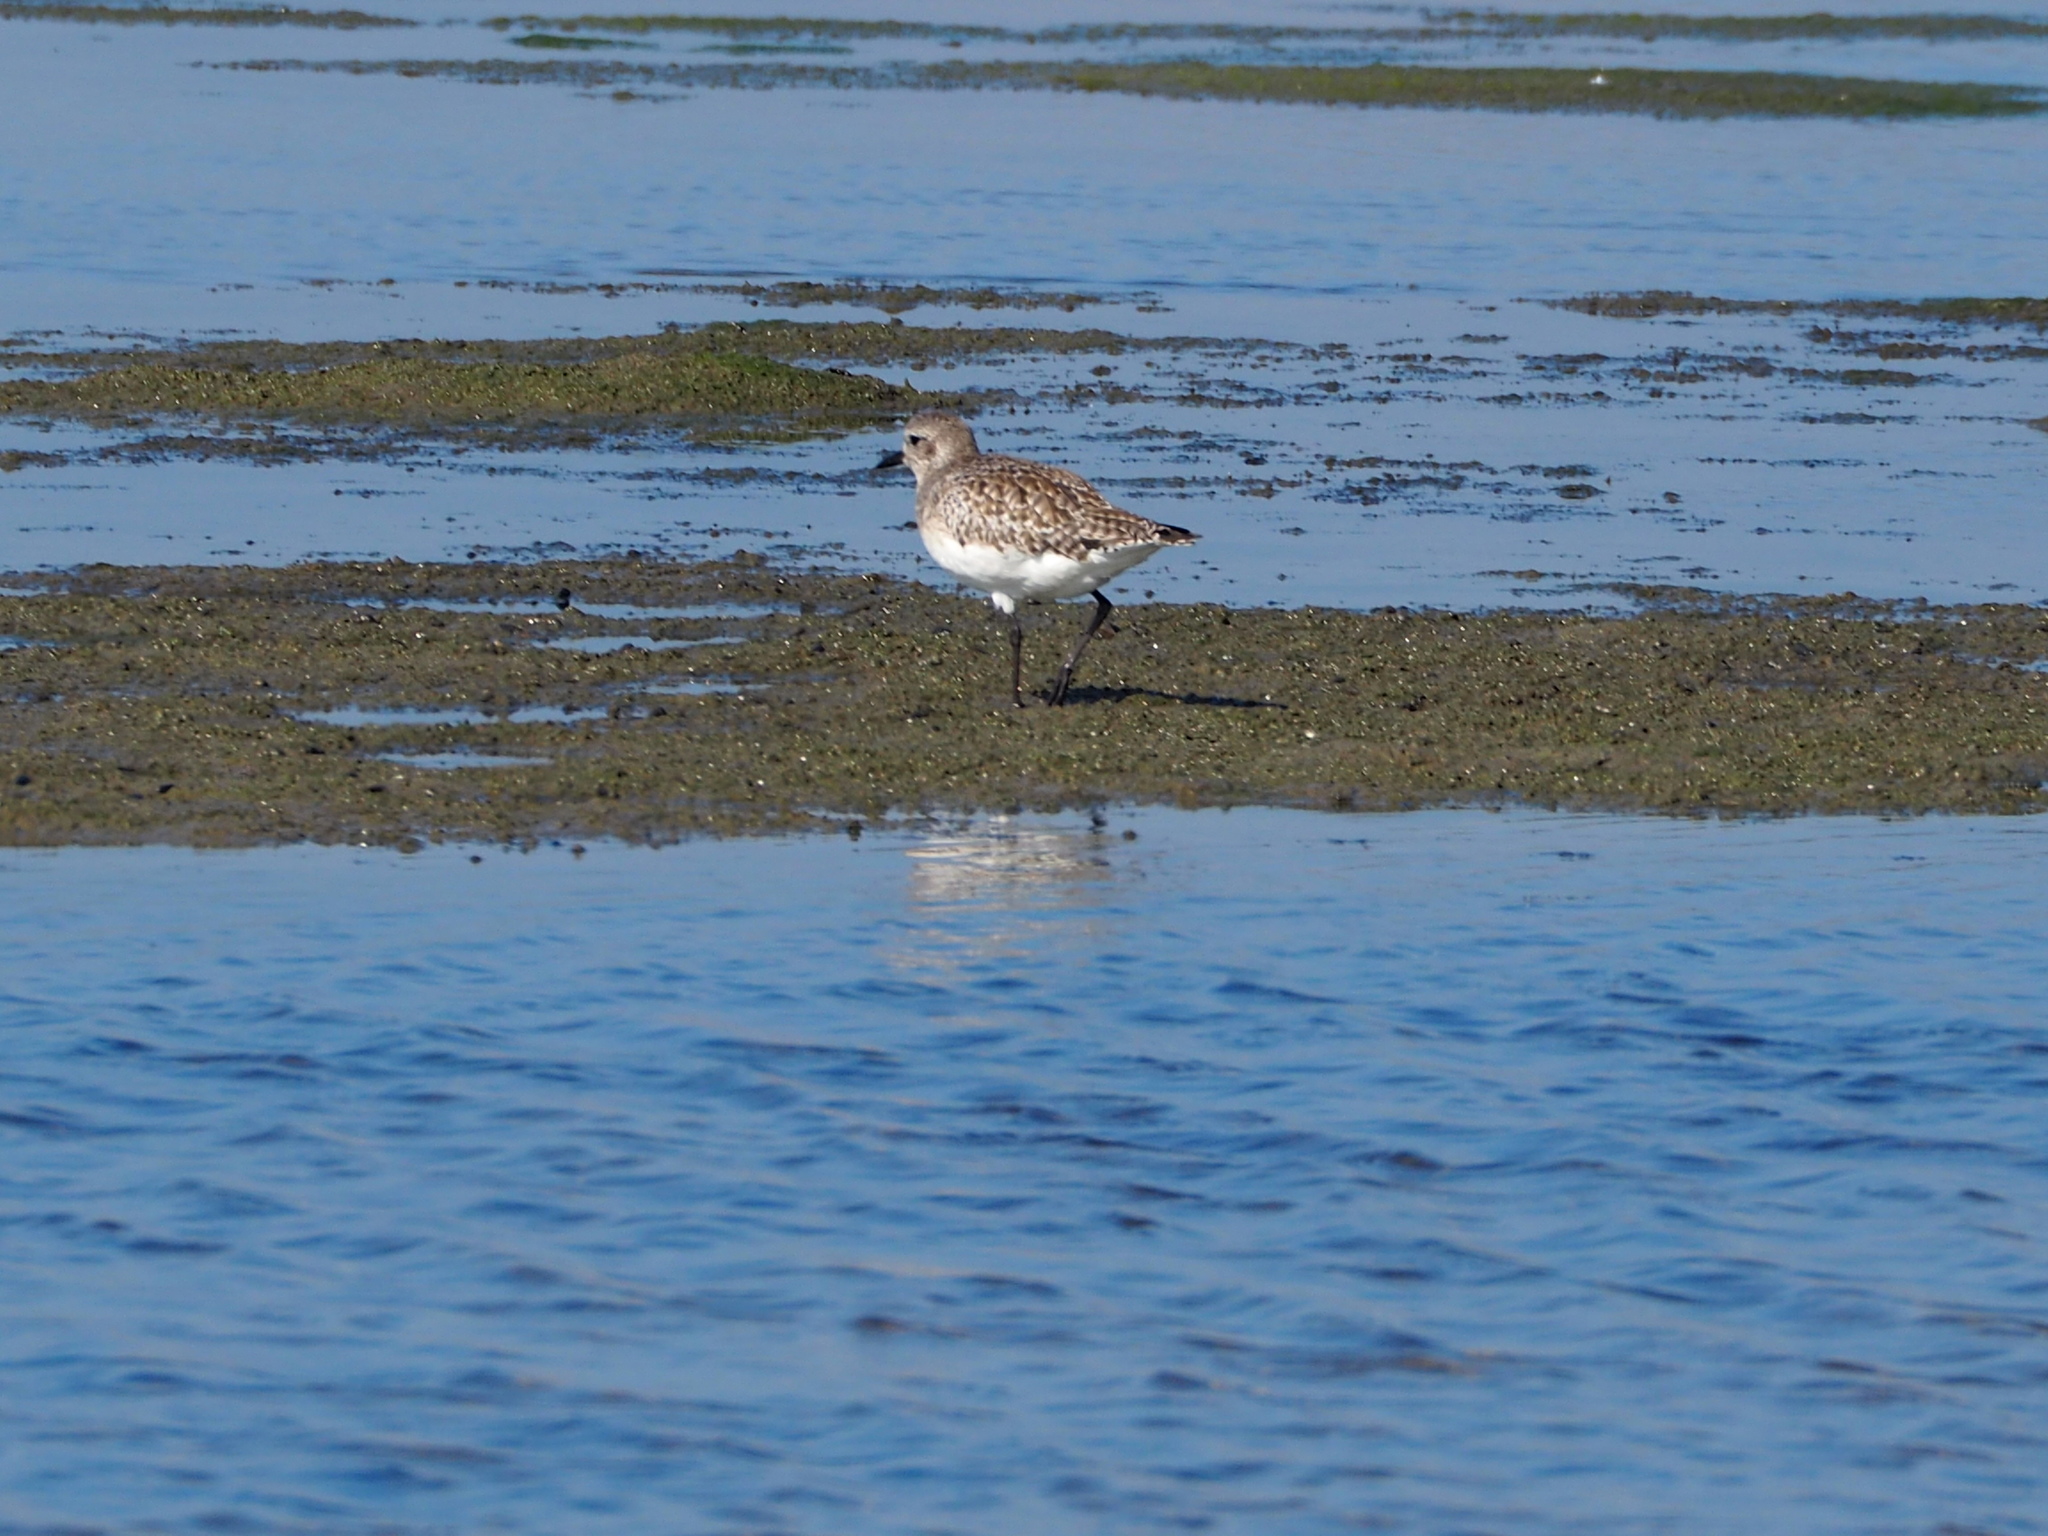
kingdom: Animalia
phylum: Chordata
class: Aves
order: Charadriiformes
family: Charadriidae
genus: Pluvialis
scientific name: Pluvialis squatarola
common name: Grey plover
